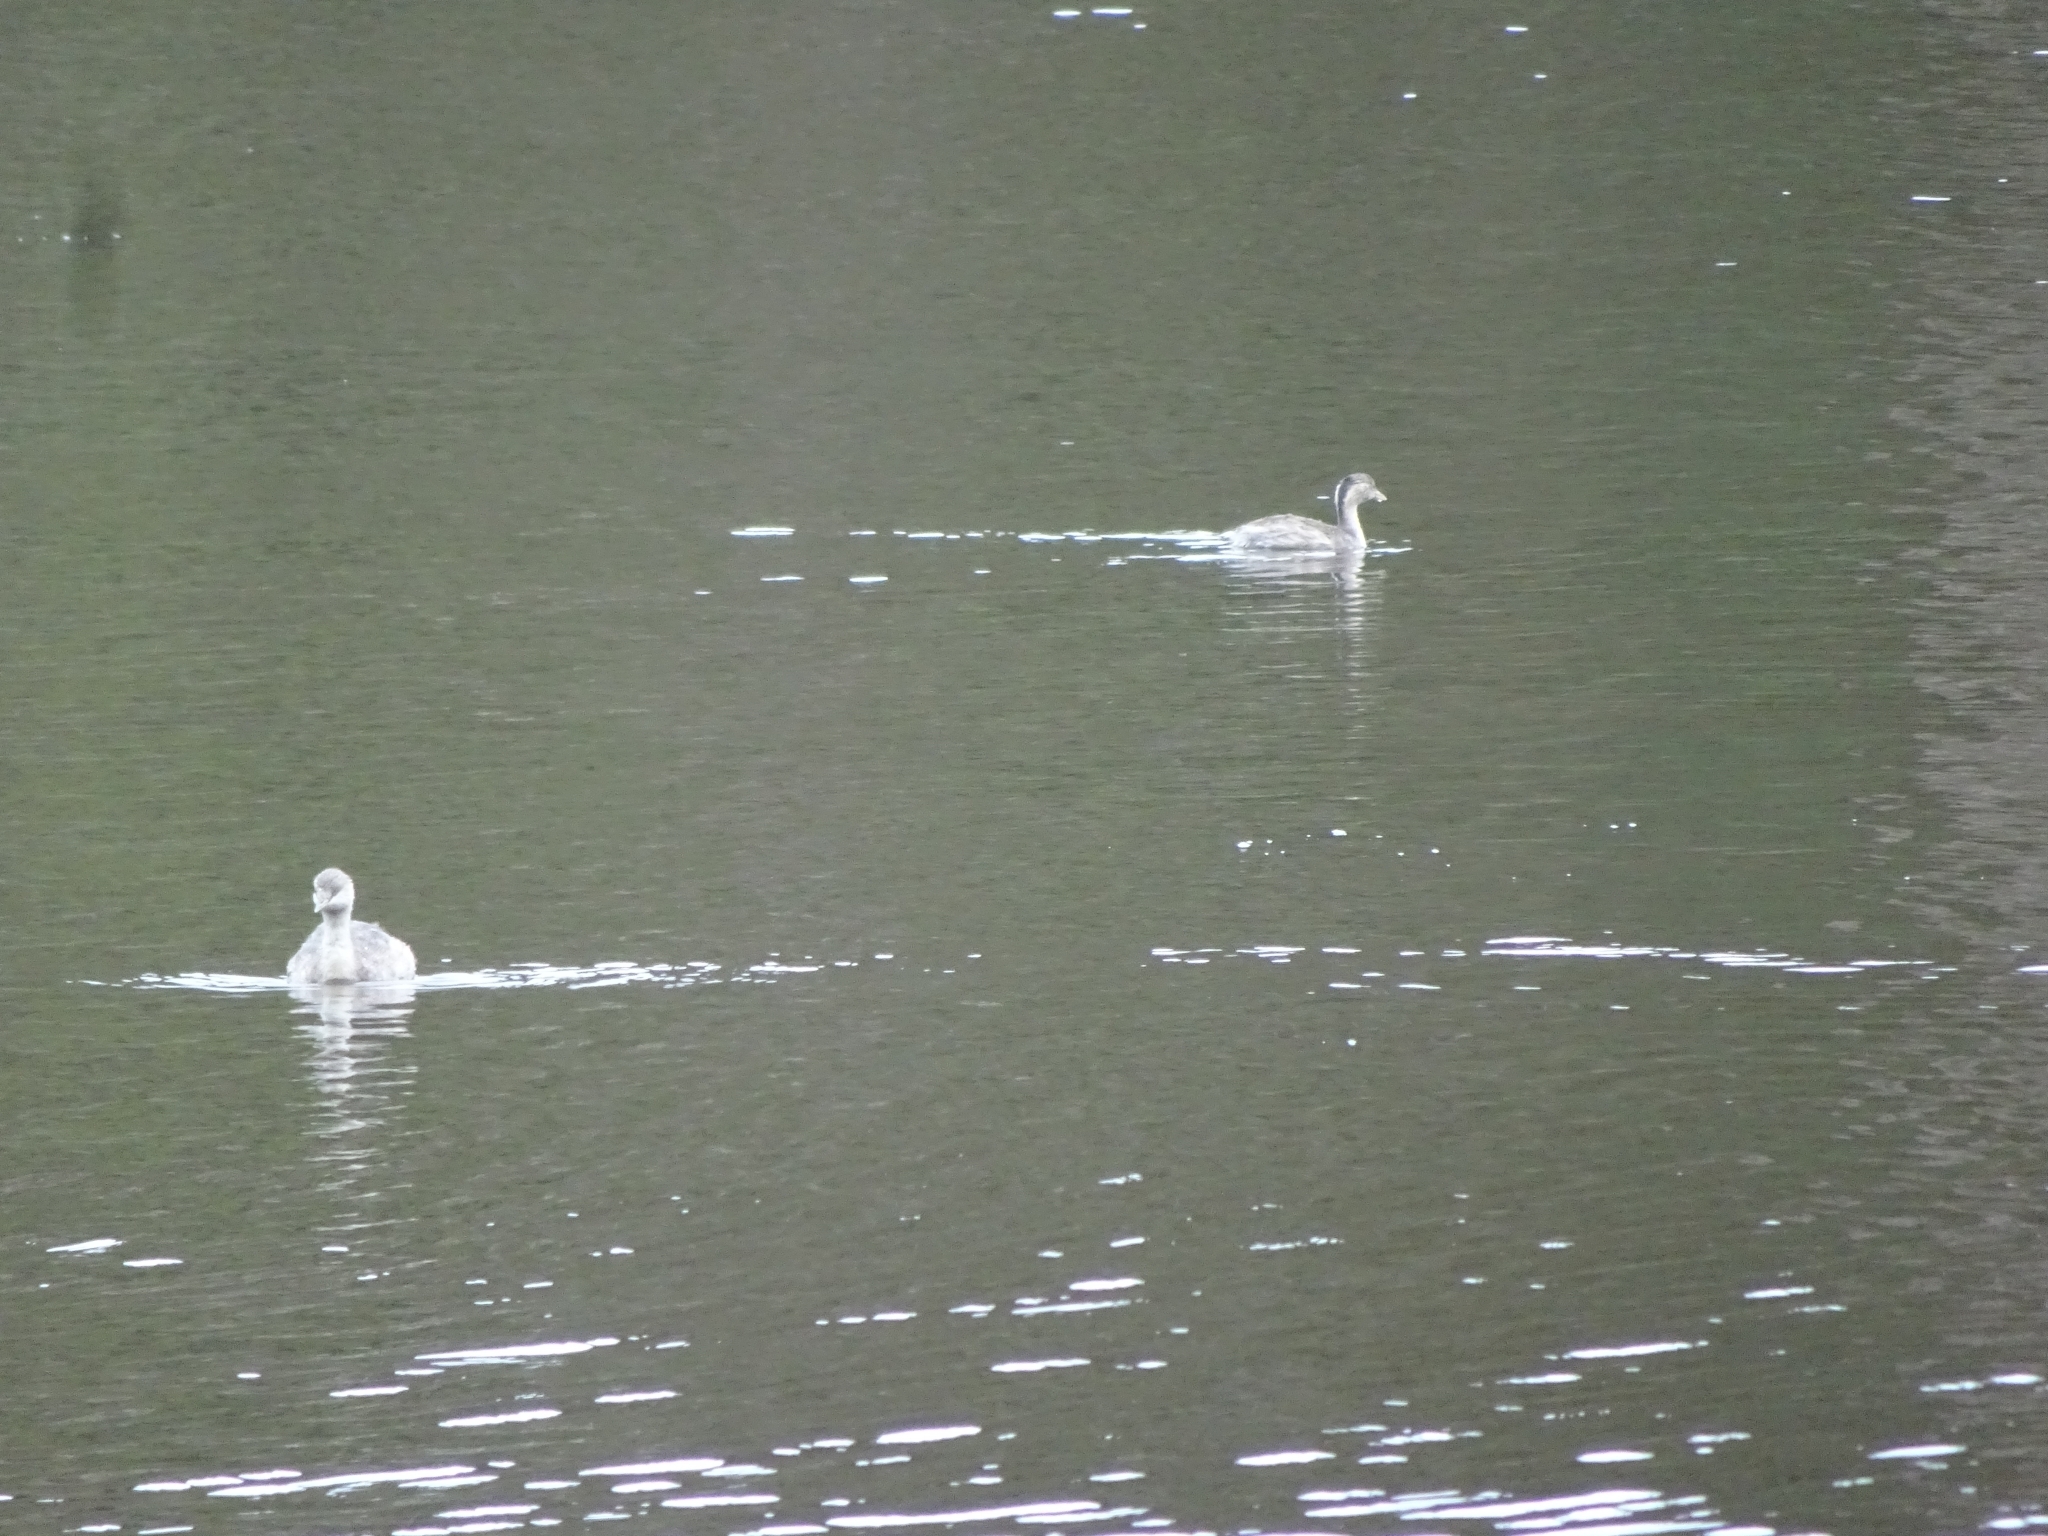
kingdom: Animalia
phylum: Chordata
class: Aves
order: Podicipediformes
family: Podicipedidae
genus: Poliocephalus
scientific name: Poliocephalus poliocephalus
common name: Hoary-headed grebe
